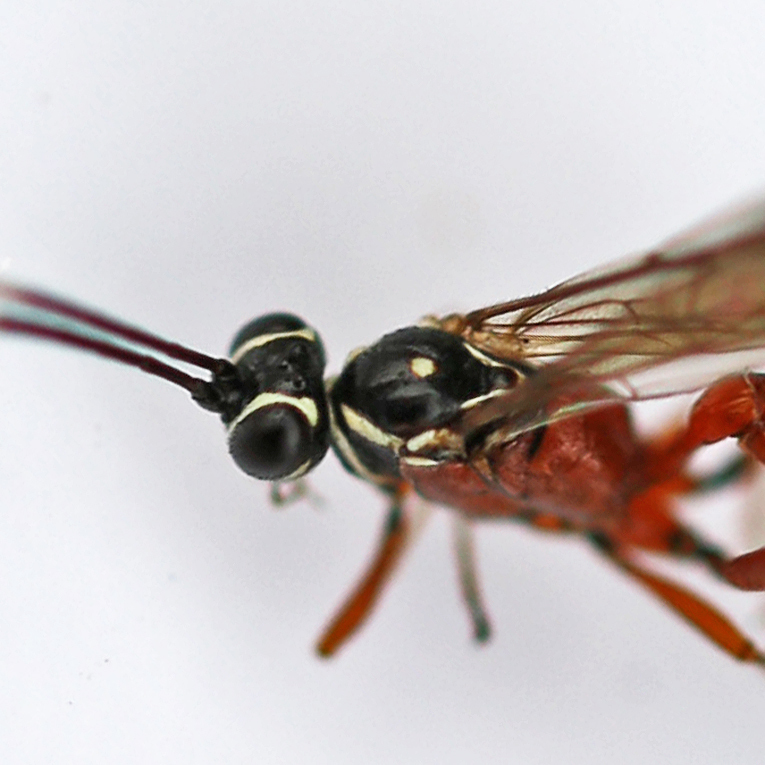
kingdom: Animalia
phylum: Arthropoda
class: Insecta
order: Hymenoptera
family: Ichneumonidae
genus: Mesostenus
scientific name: Mesostenus gracilis
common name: Parasitoid wasp
